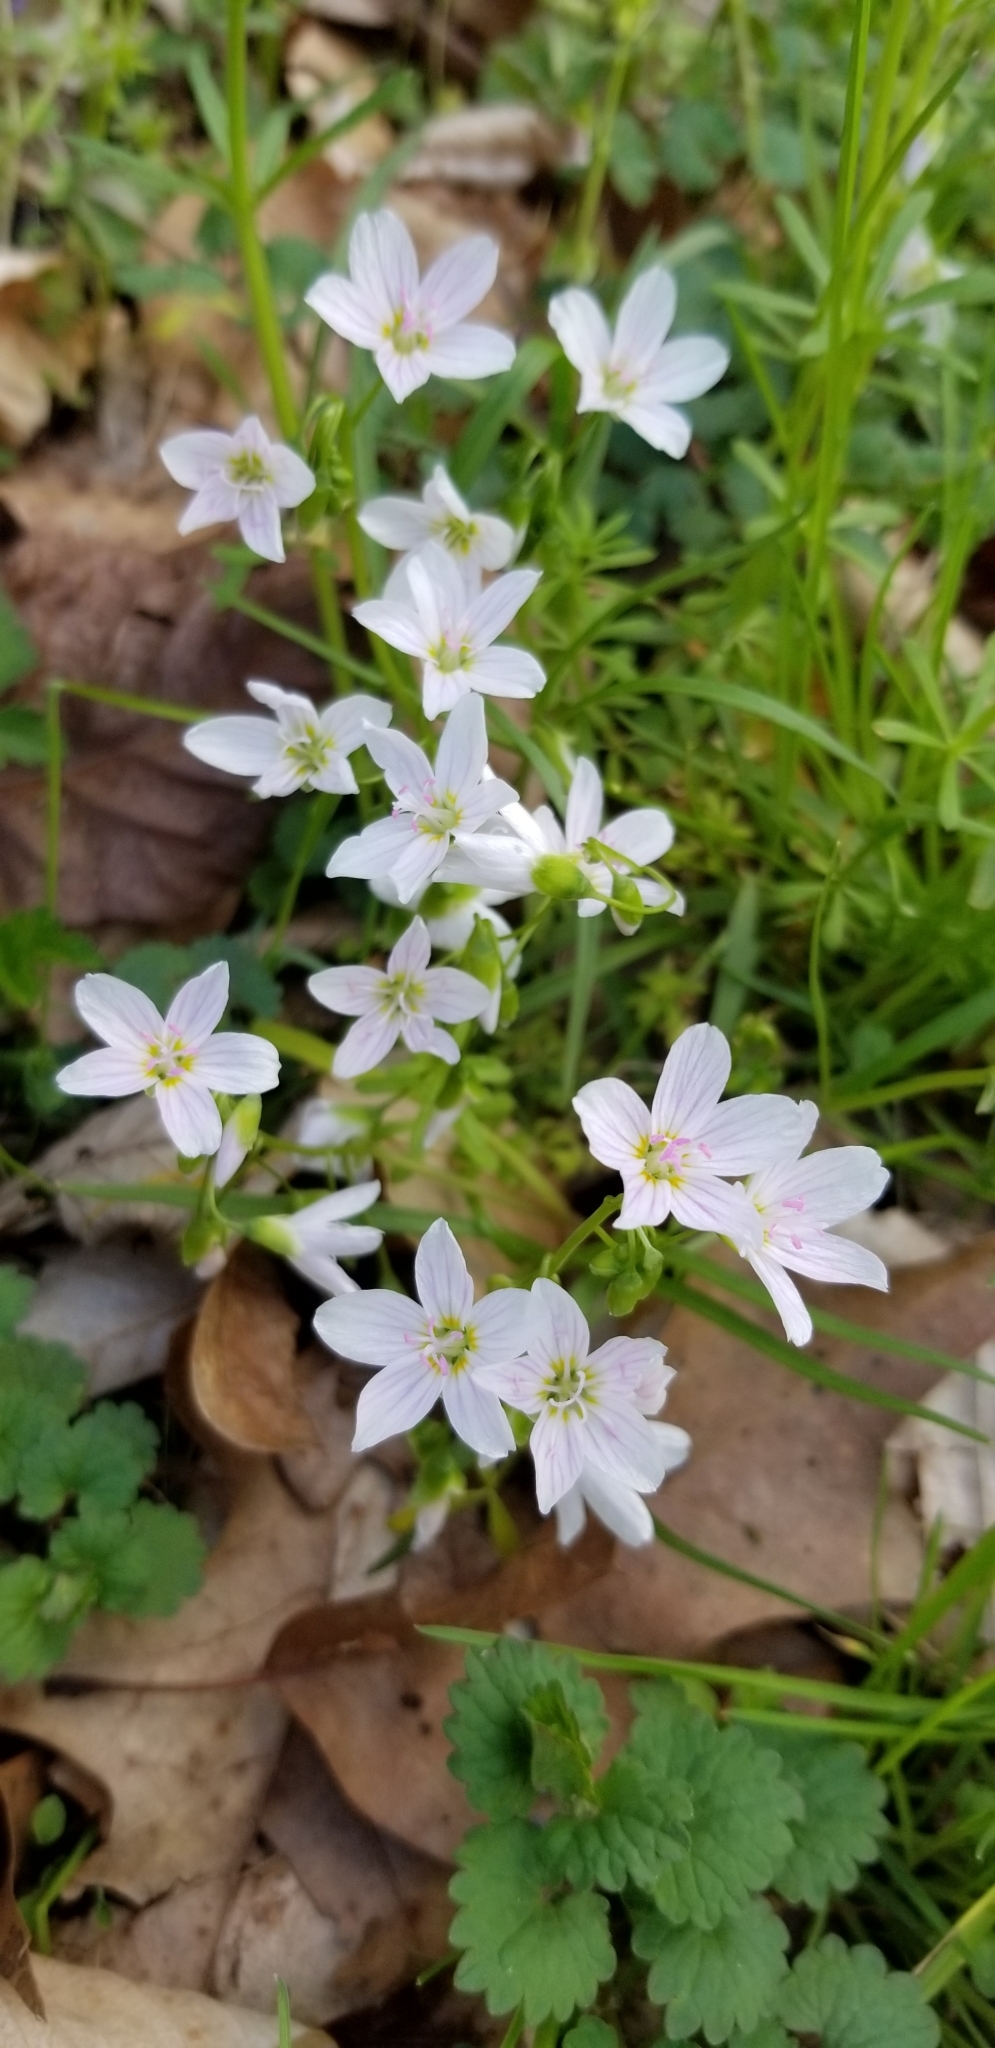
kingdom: Plantae
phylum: Tracheophyta
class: Magnoliopsida
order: Caryophyllales
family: Montiaceae
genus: Claytonia
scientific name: Claytonia virginica
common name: Virginia springbeauty
